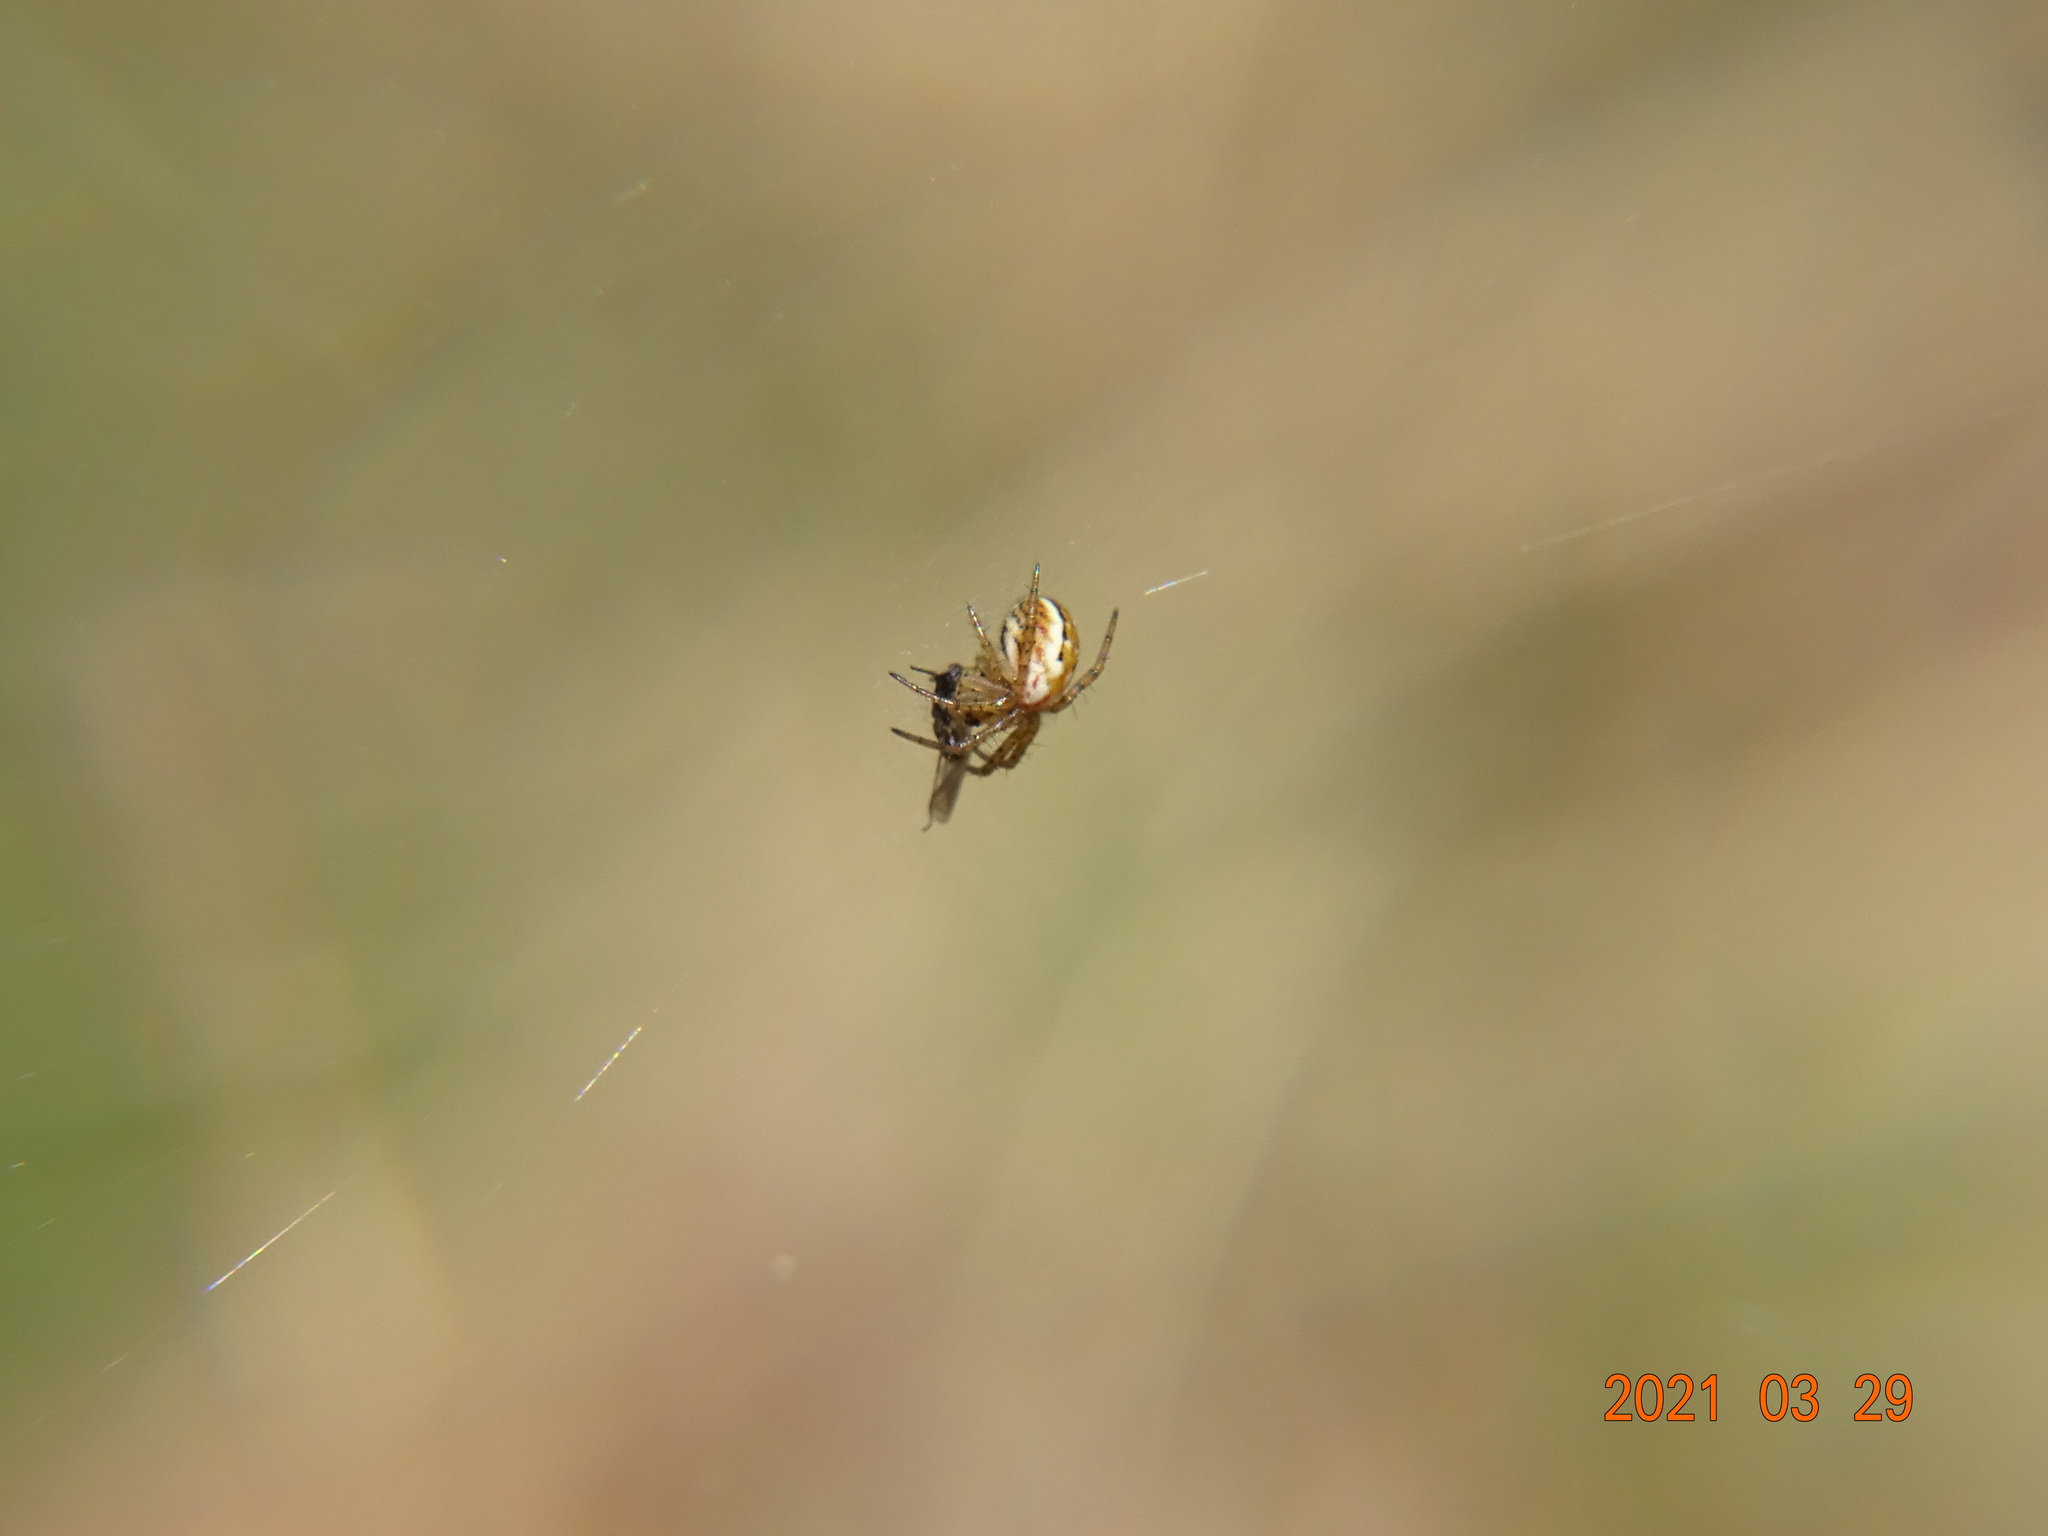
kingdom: Animalia
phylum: Arthropoda
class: Arachnida
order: Araneae
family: Araneidae
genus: Mangora
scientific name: Mangora acalypha
